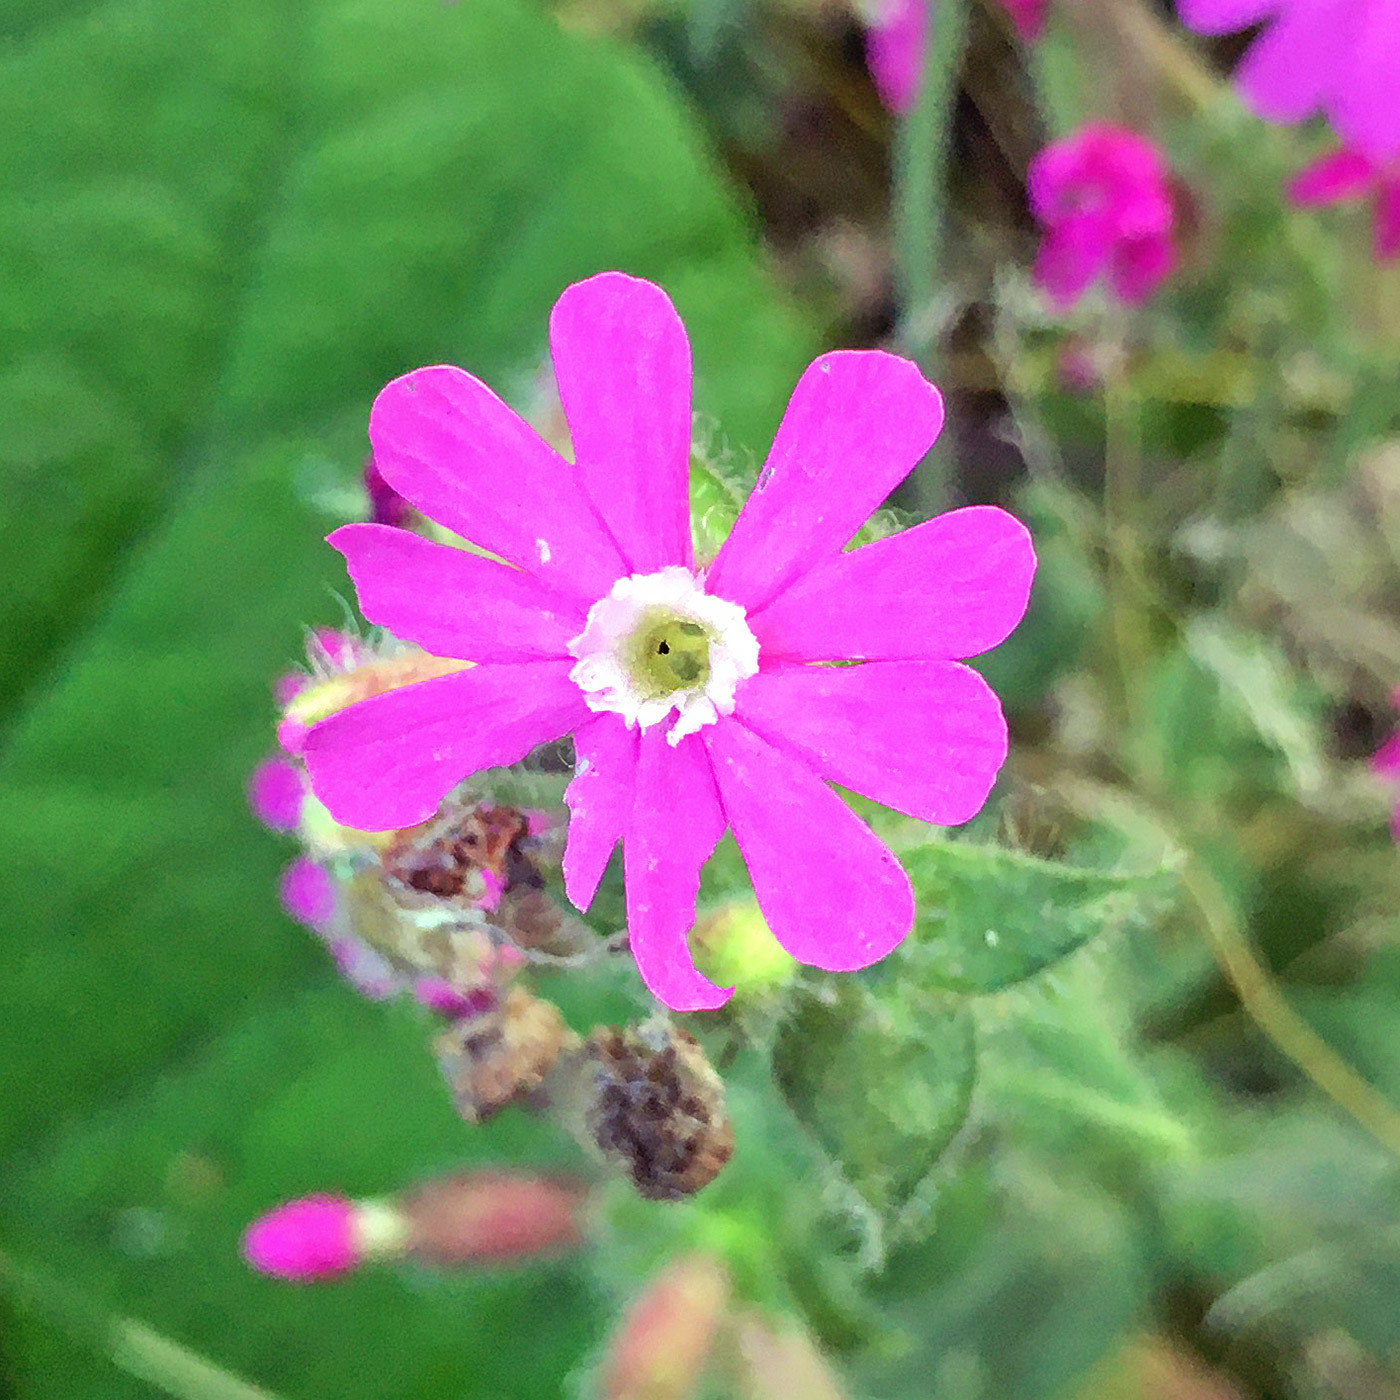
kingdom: Plantae
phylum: Tracheophyta
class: Magnoliopsida
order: Caryophyllales
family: Caryophyllaceae
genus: Silene
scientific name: Silene dioica
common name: Red campion
